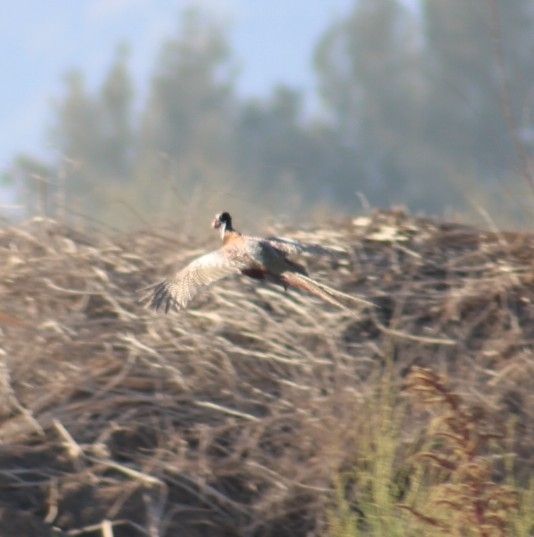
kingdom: Animalia
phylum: Chordata
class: Aves
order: Galliformes
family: Phasianidae
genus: Phasianus
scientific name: Phasianus colchicus
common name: Common pheasant
